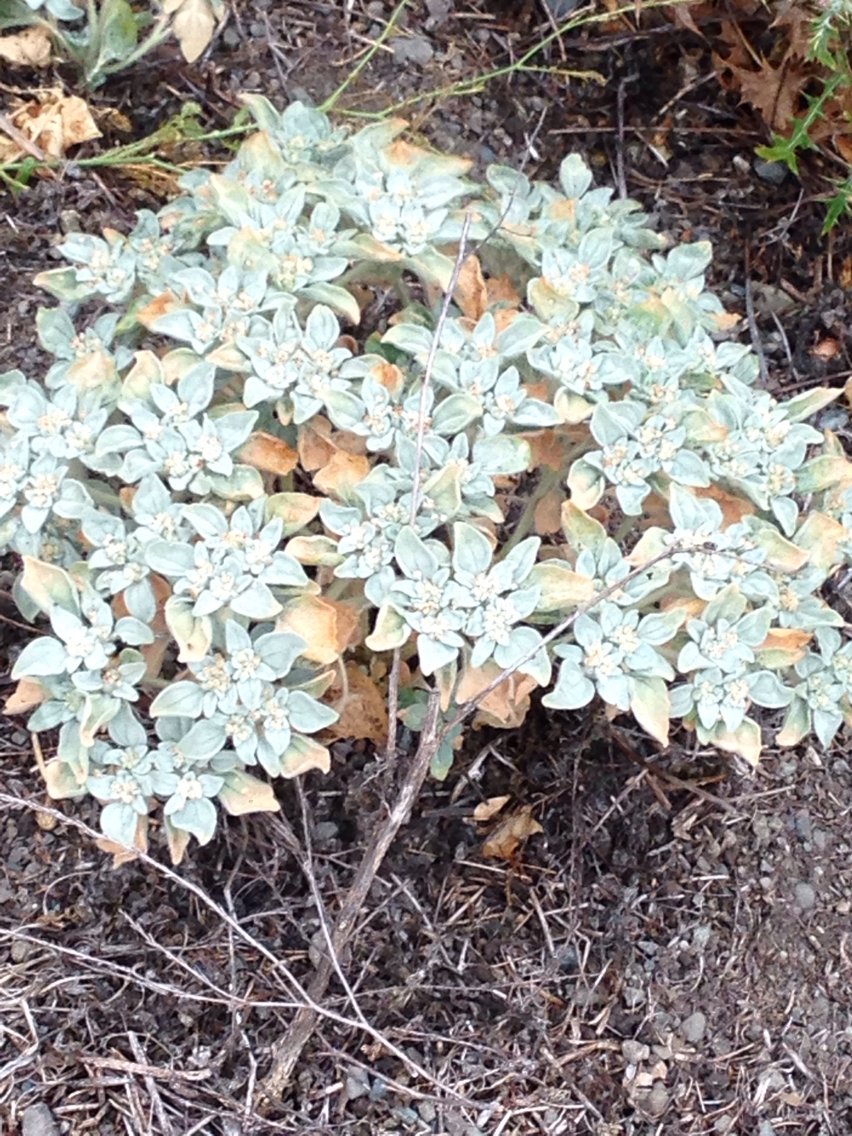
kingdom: Plantae
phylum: Tracheophyta
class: Magnoliopsida
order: Malpighiales
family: Euphorbiaceae
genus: Croton
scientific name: Croton setiger
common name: Dove weed
